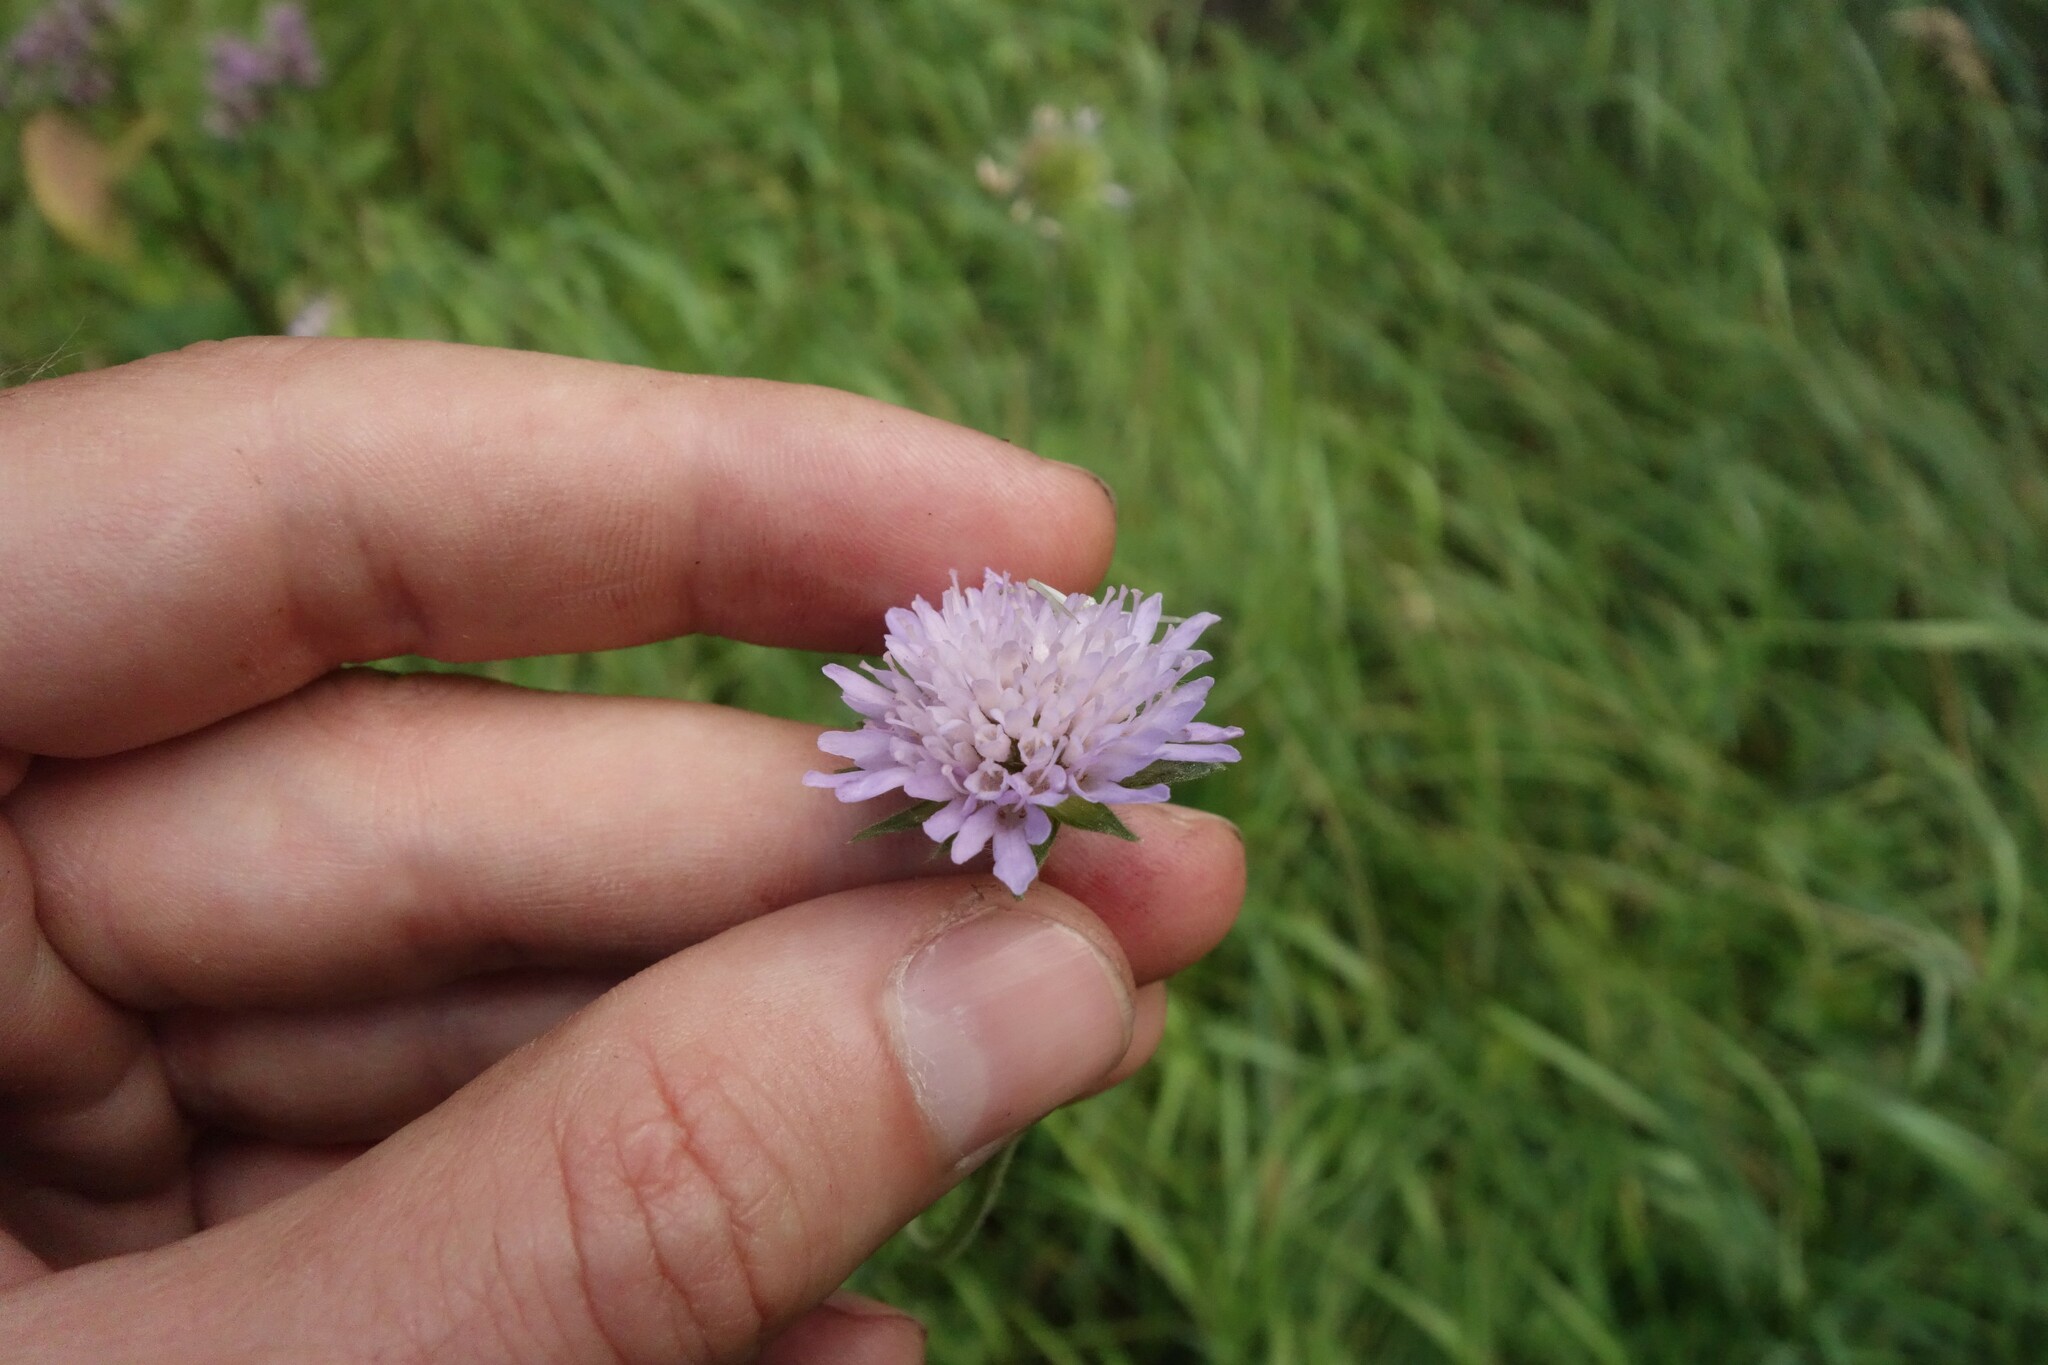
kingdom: Plantae
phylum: Tracheophyta
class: Magnoliopsida
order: Dipsacales
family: Caprifoliaceae
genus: Knautia
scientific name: Knautia arvensis
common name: Field scabiosa
